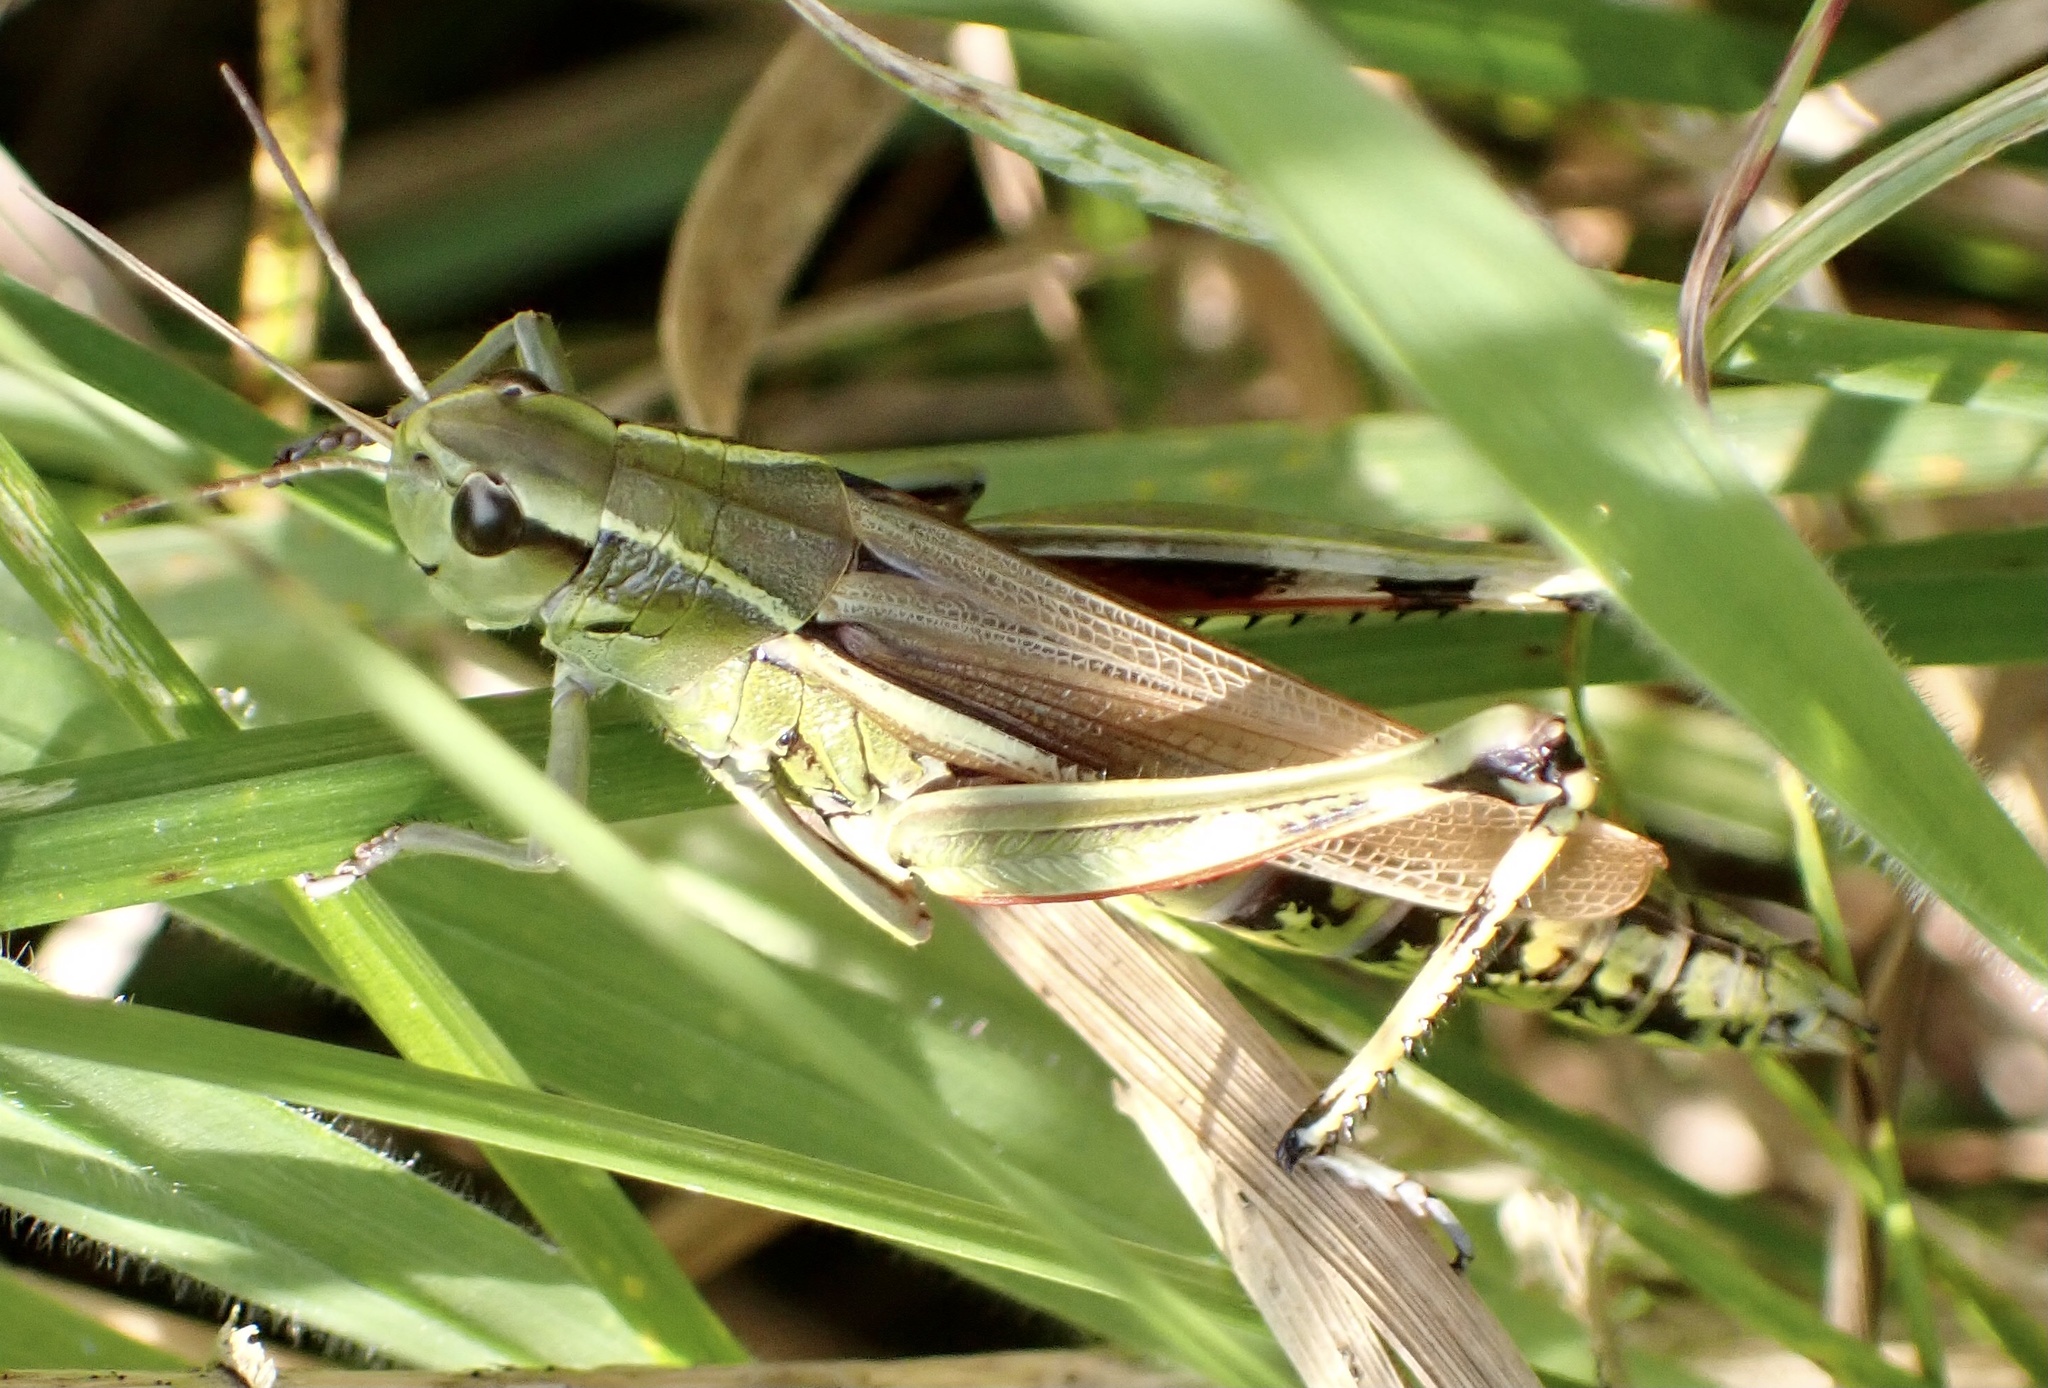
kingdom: Animalia
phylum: Arthropoda
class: Insecta
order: Orthoptera
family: Acrididae
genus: Stethophyma
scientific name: Stethophyma grossum
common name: Large marsh grasshopper
